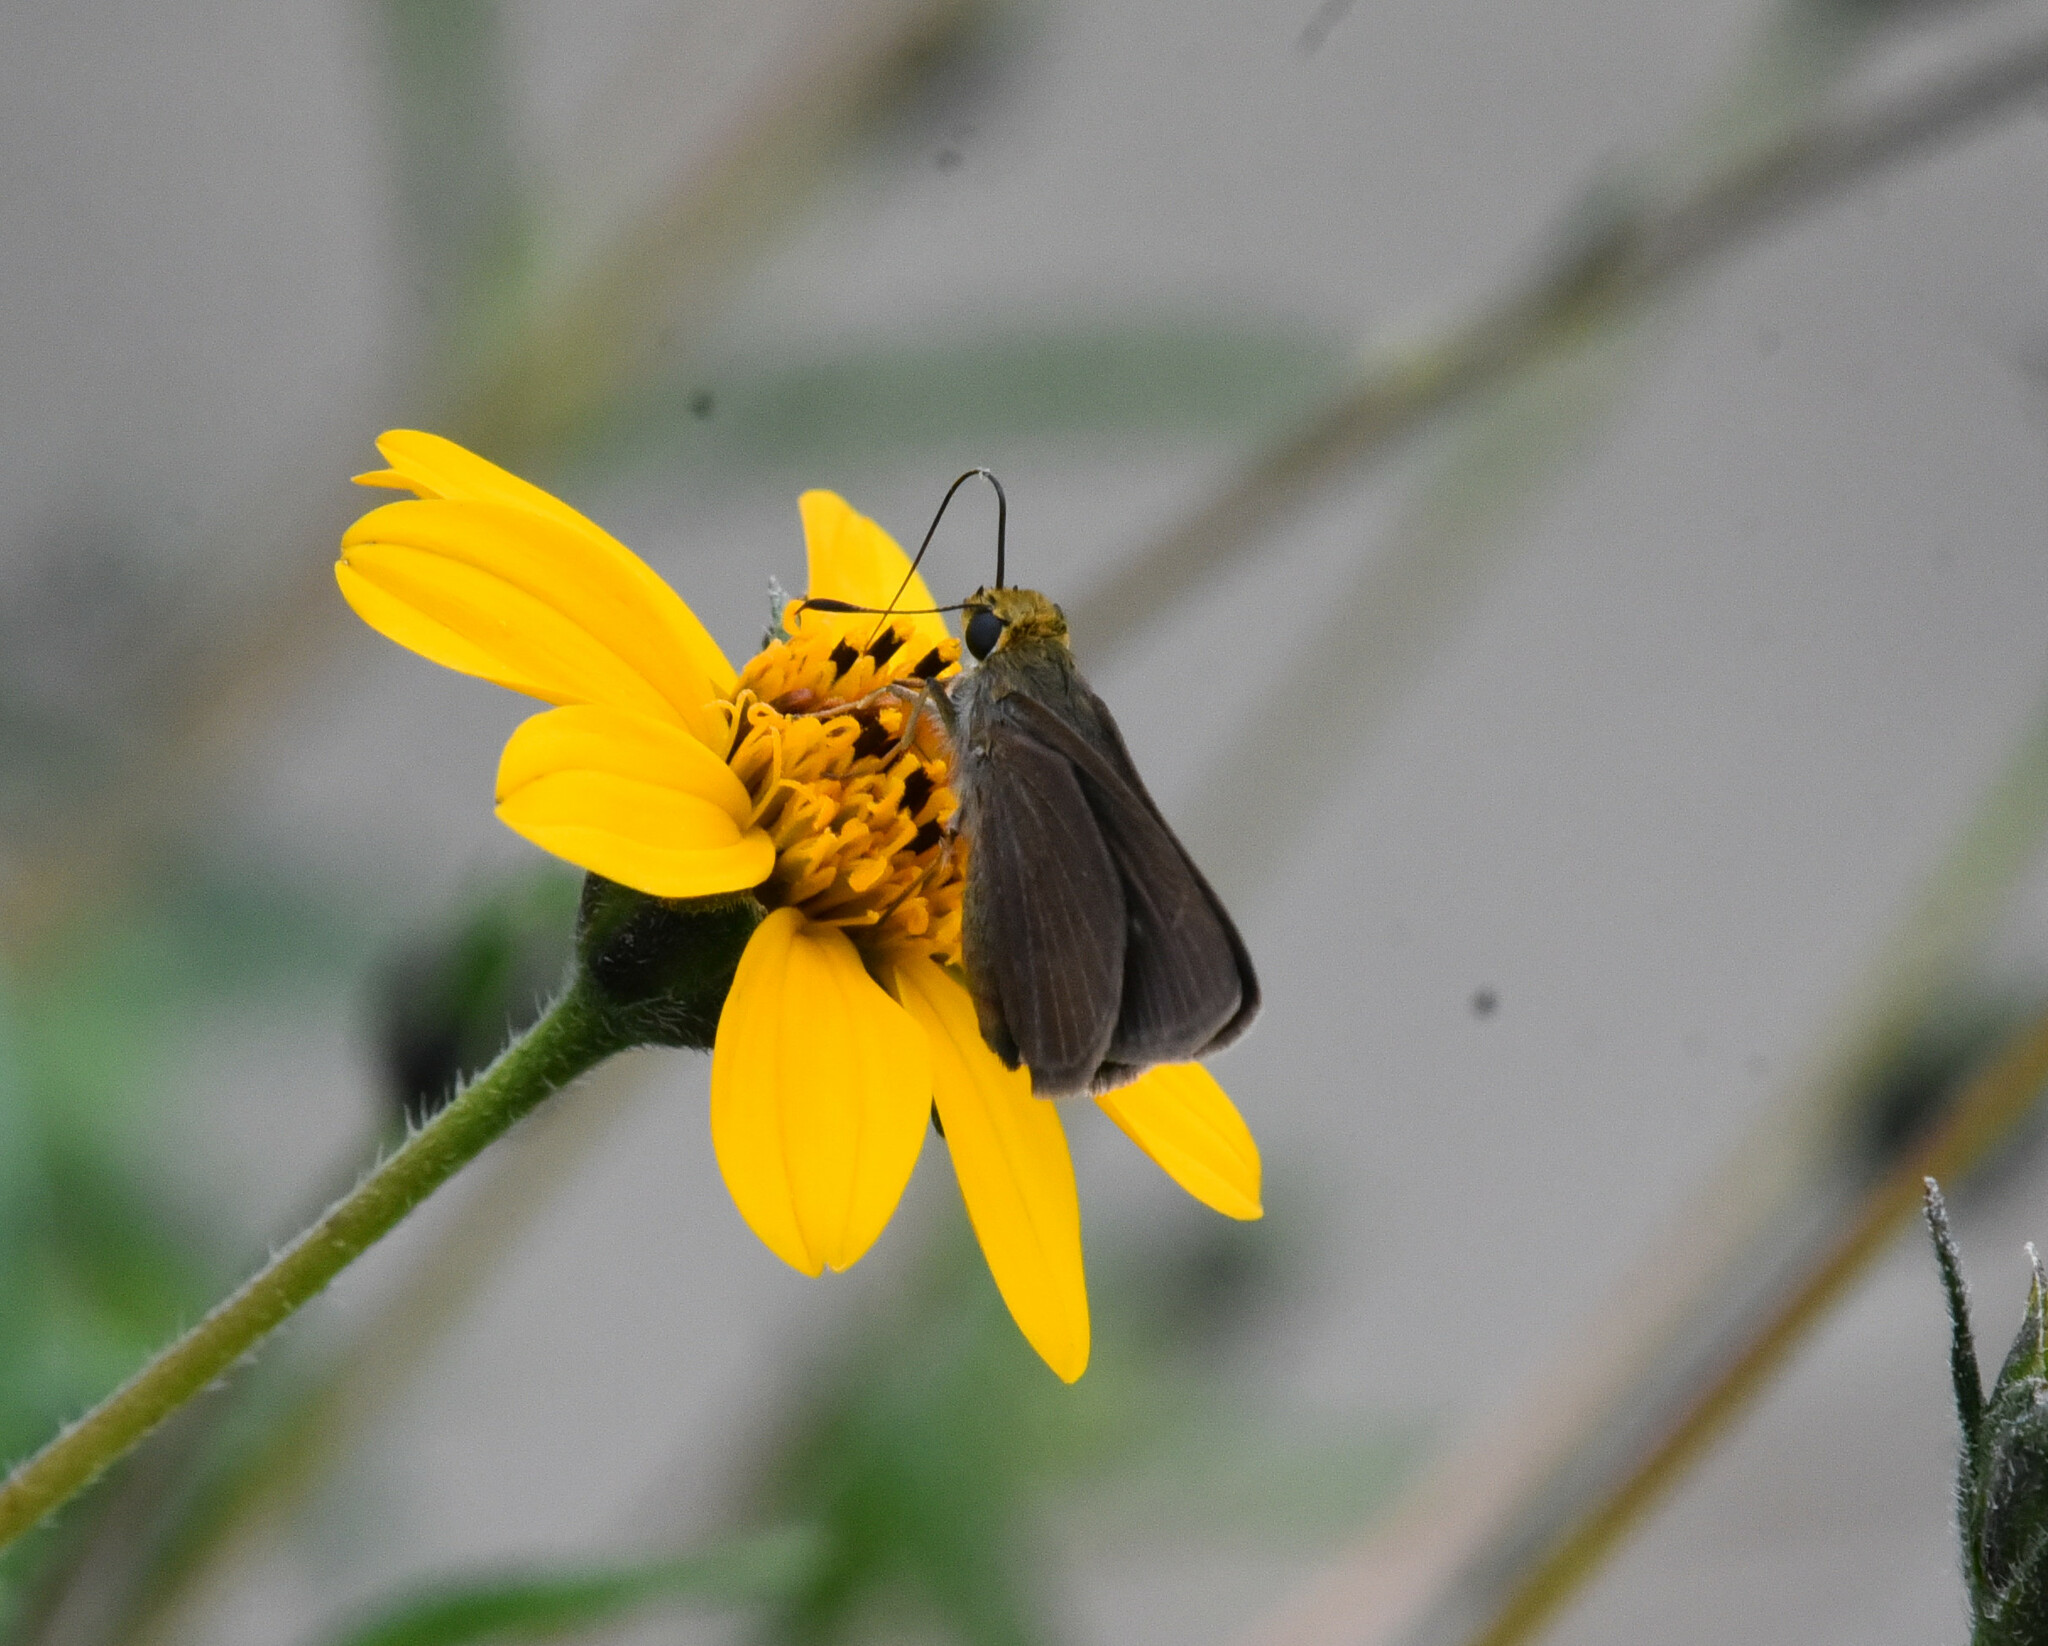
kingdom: Animalia
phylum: Arthropoda
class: Insecta
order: Lepidoptera
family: Hesperiidae
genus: Euphyes
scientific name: Euphyes vestris
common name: Dun skipper
